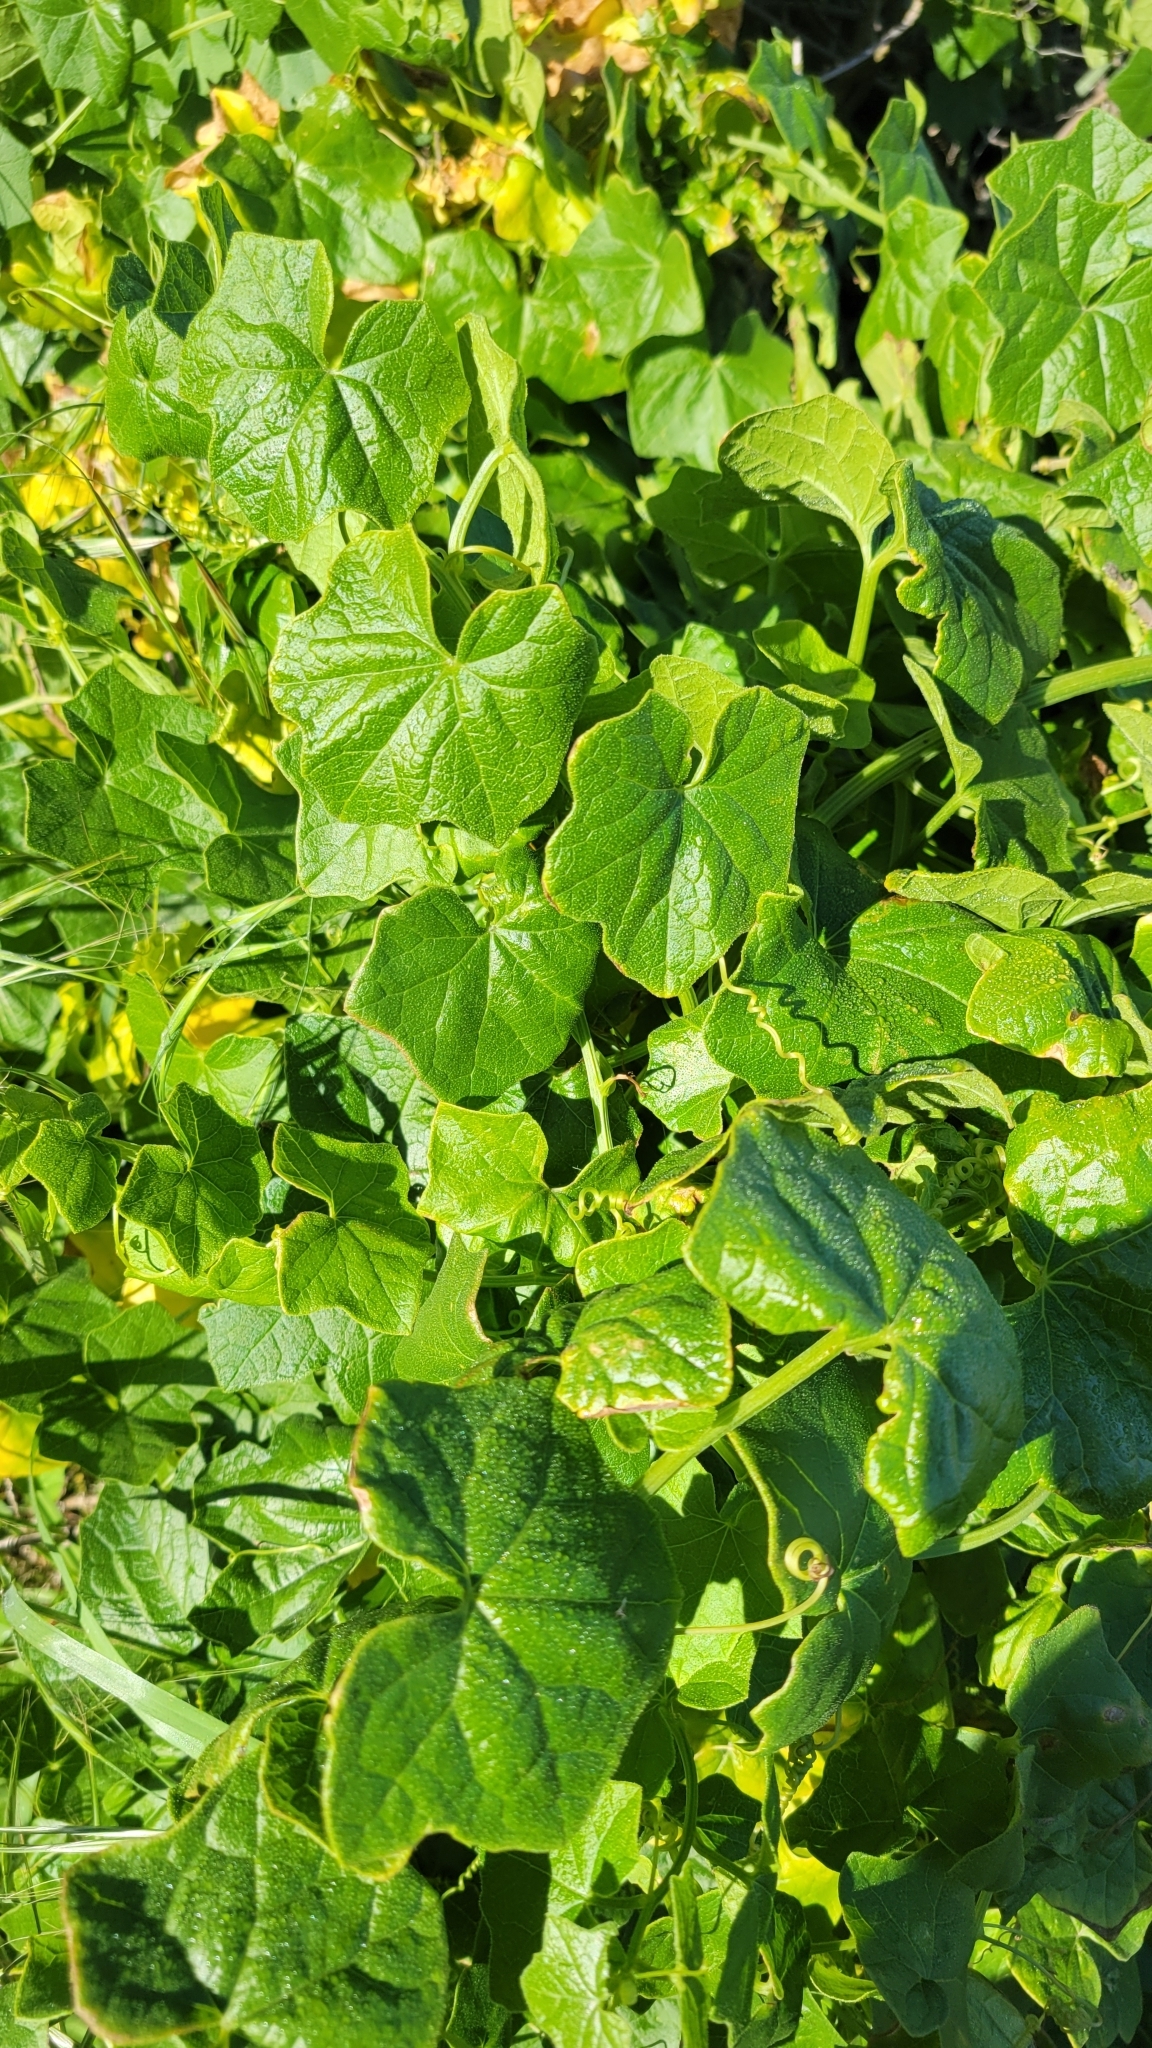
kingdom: Plantae
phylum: Tracheophyta
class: Magnoliopsida
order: Cucurbitales
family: Cucurbitaceae
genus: Marah
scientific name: Marah fabacea
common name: California manroot
